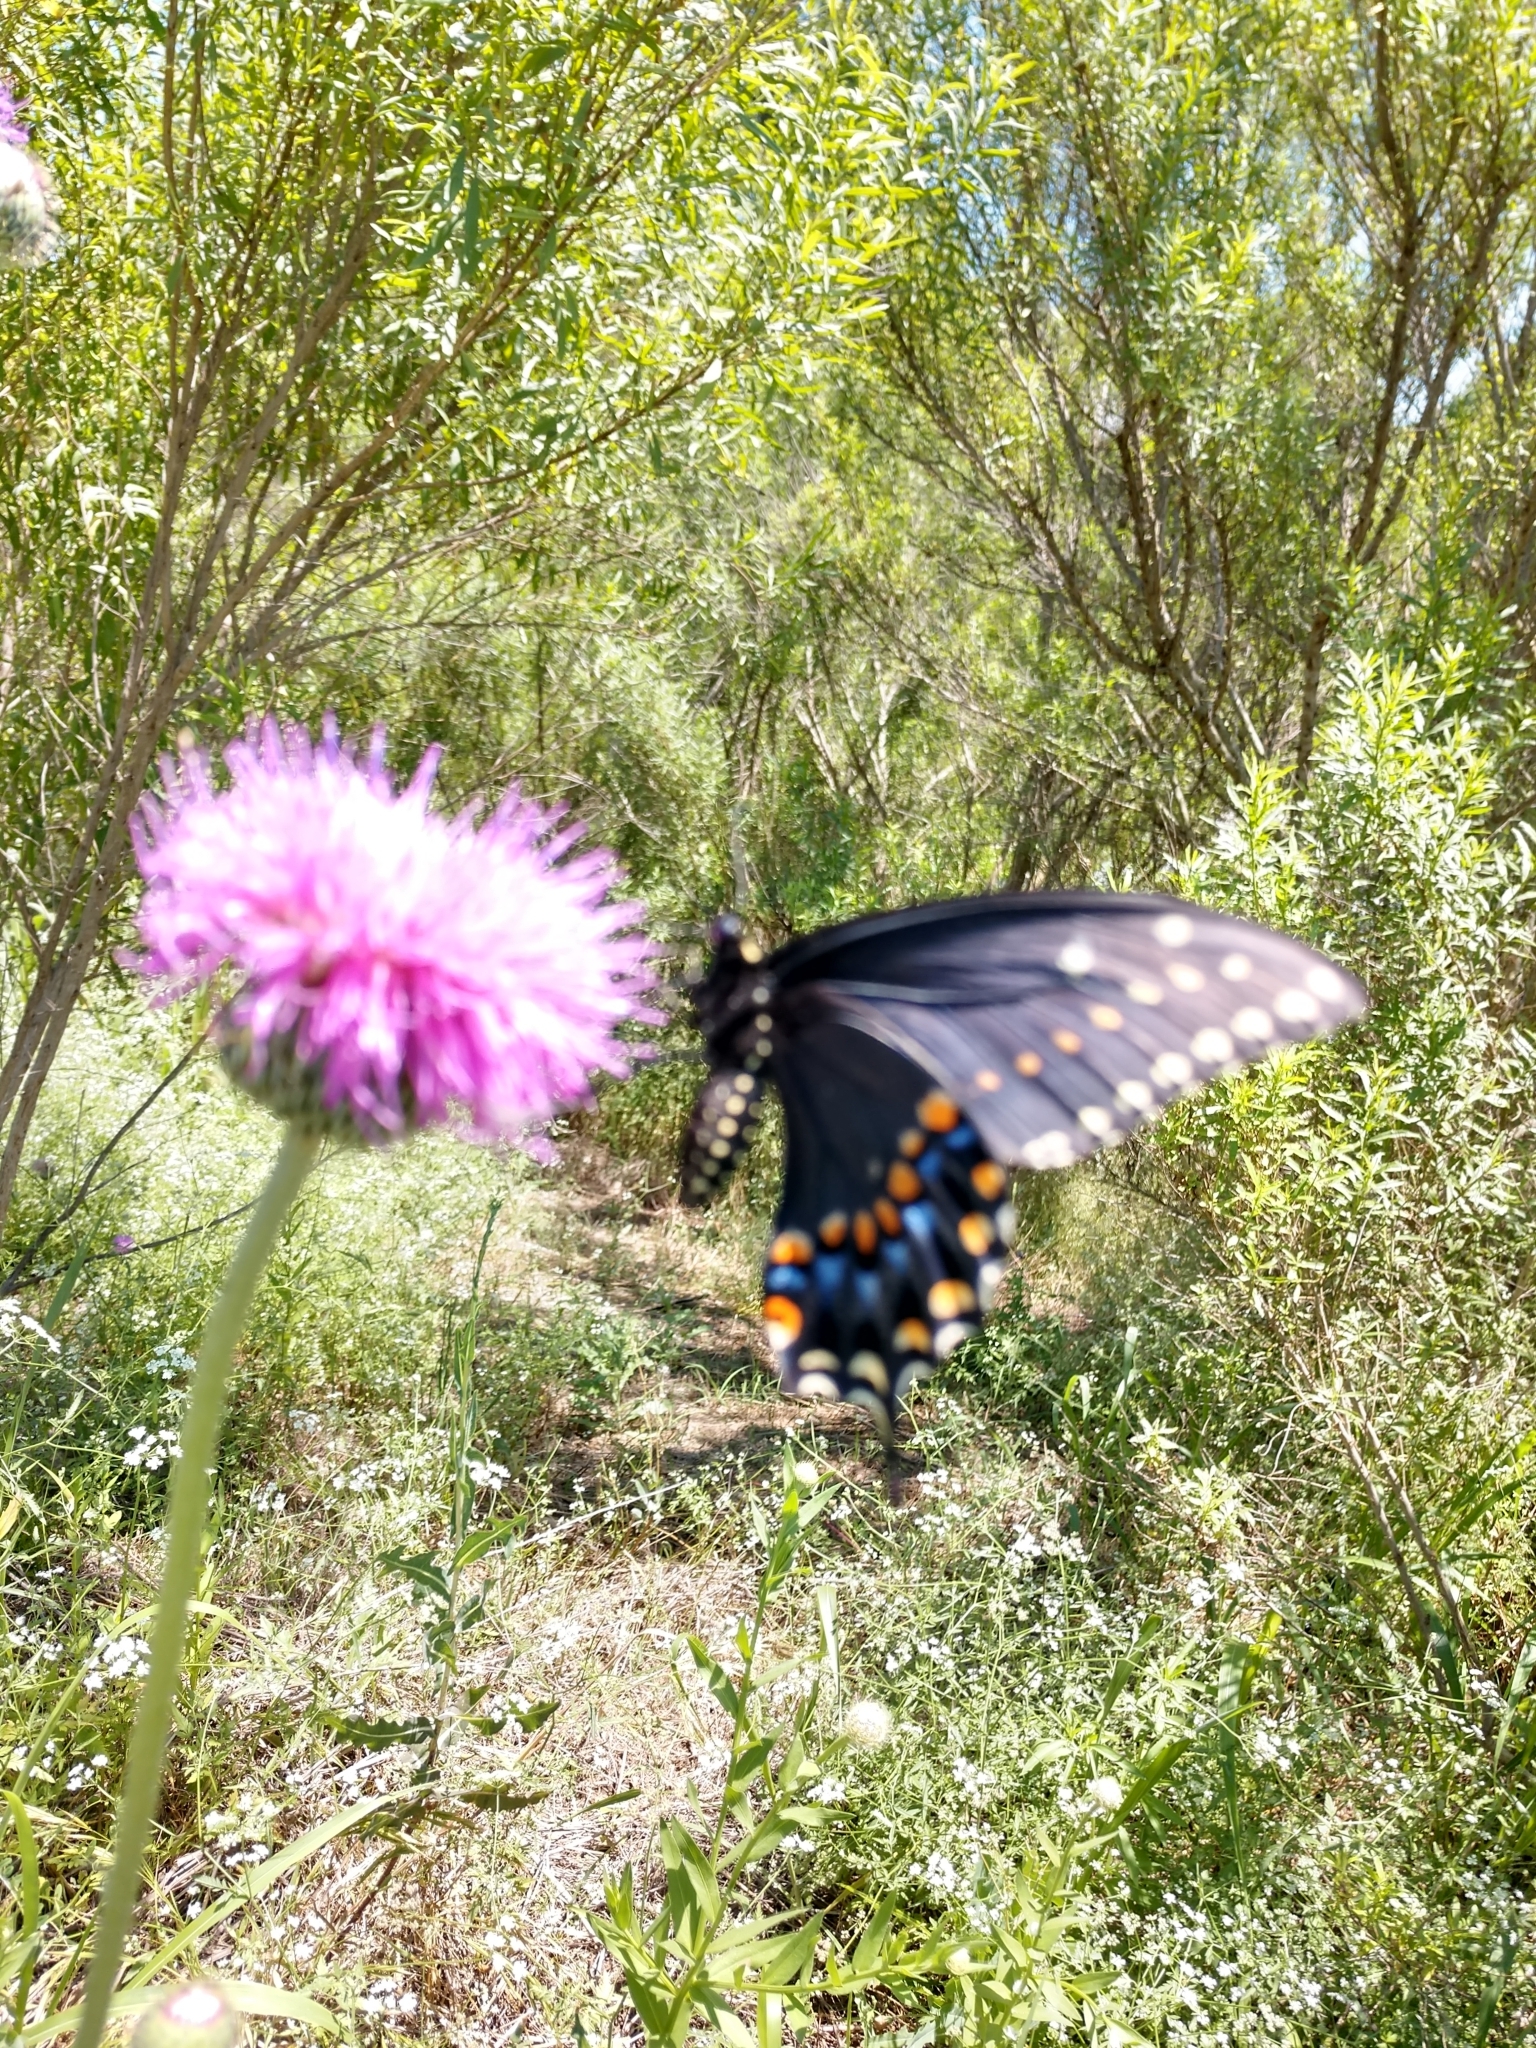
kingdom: Animalia
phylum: Arthropoda
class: Insecta
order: Lepidoptera
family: Papilionidae
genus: Papilio
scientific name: Papilio polyxenes
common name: Black swallowtail
